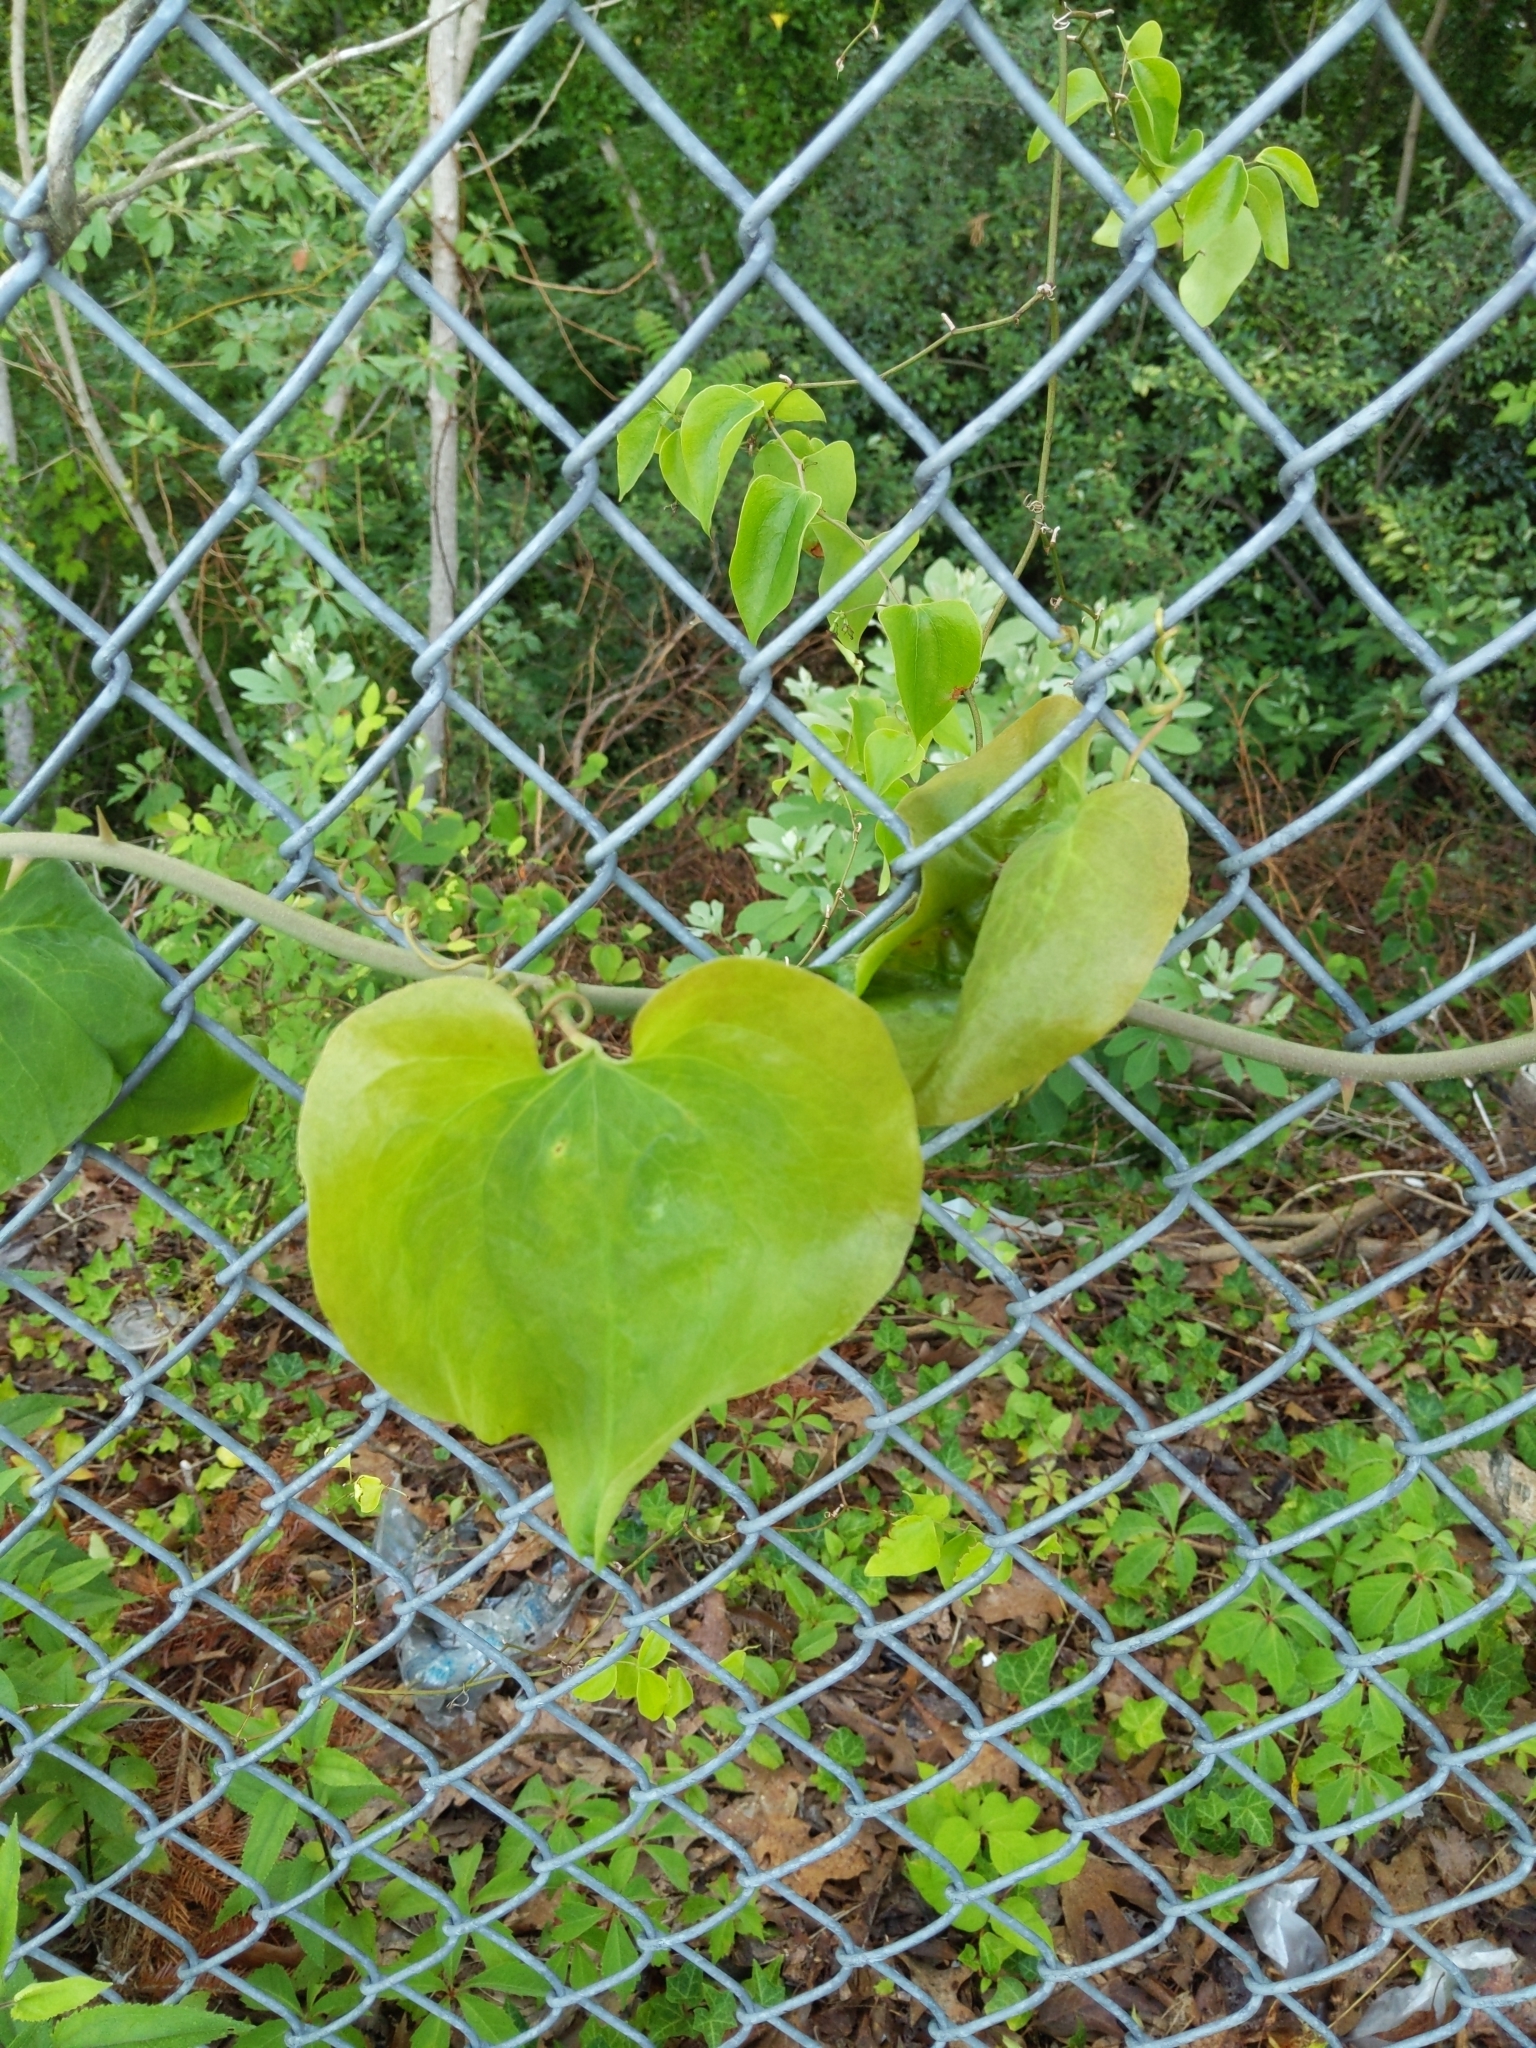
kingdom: Plantae
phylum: Tracheophyta
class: Liliopsida
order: Liliales
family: Smilacaceae
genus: Smilax
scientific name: Smilax rotundifolia
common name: Bullbriar
